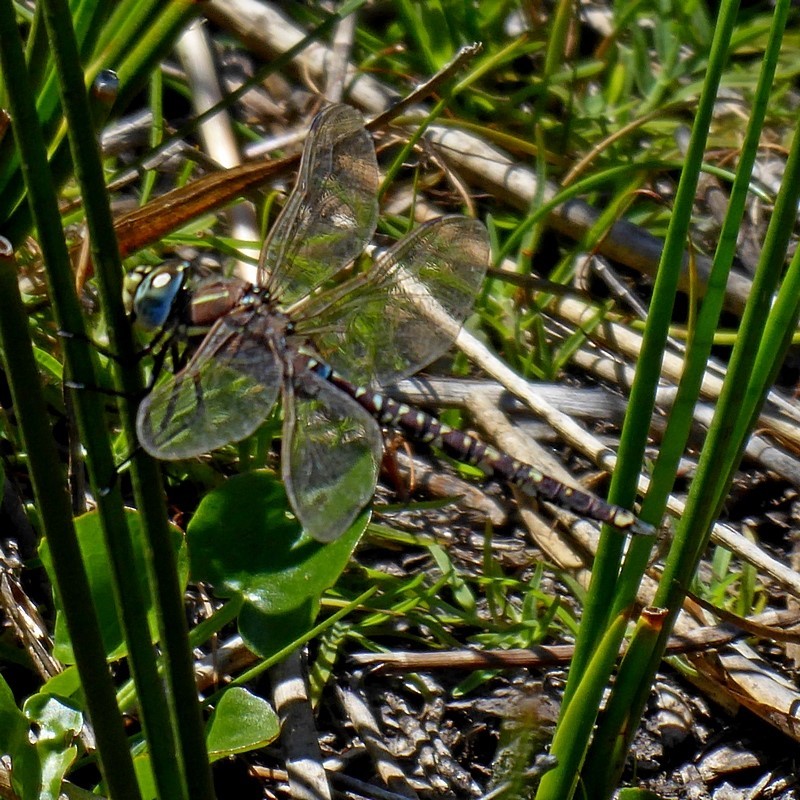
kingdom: Animalia
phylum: Arthropoda
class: Insecta
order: Odonata
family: Aeshnidae
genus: Aeshna
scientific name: Aeshna brevistyla
